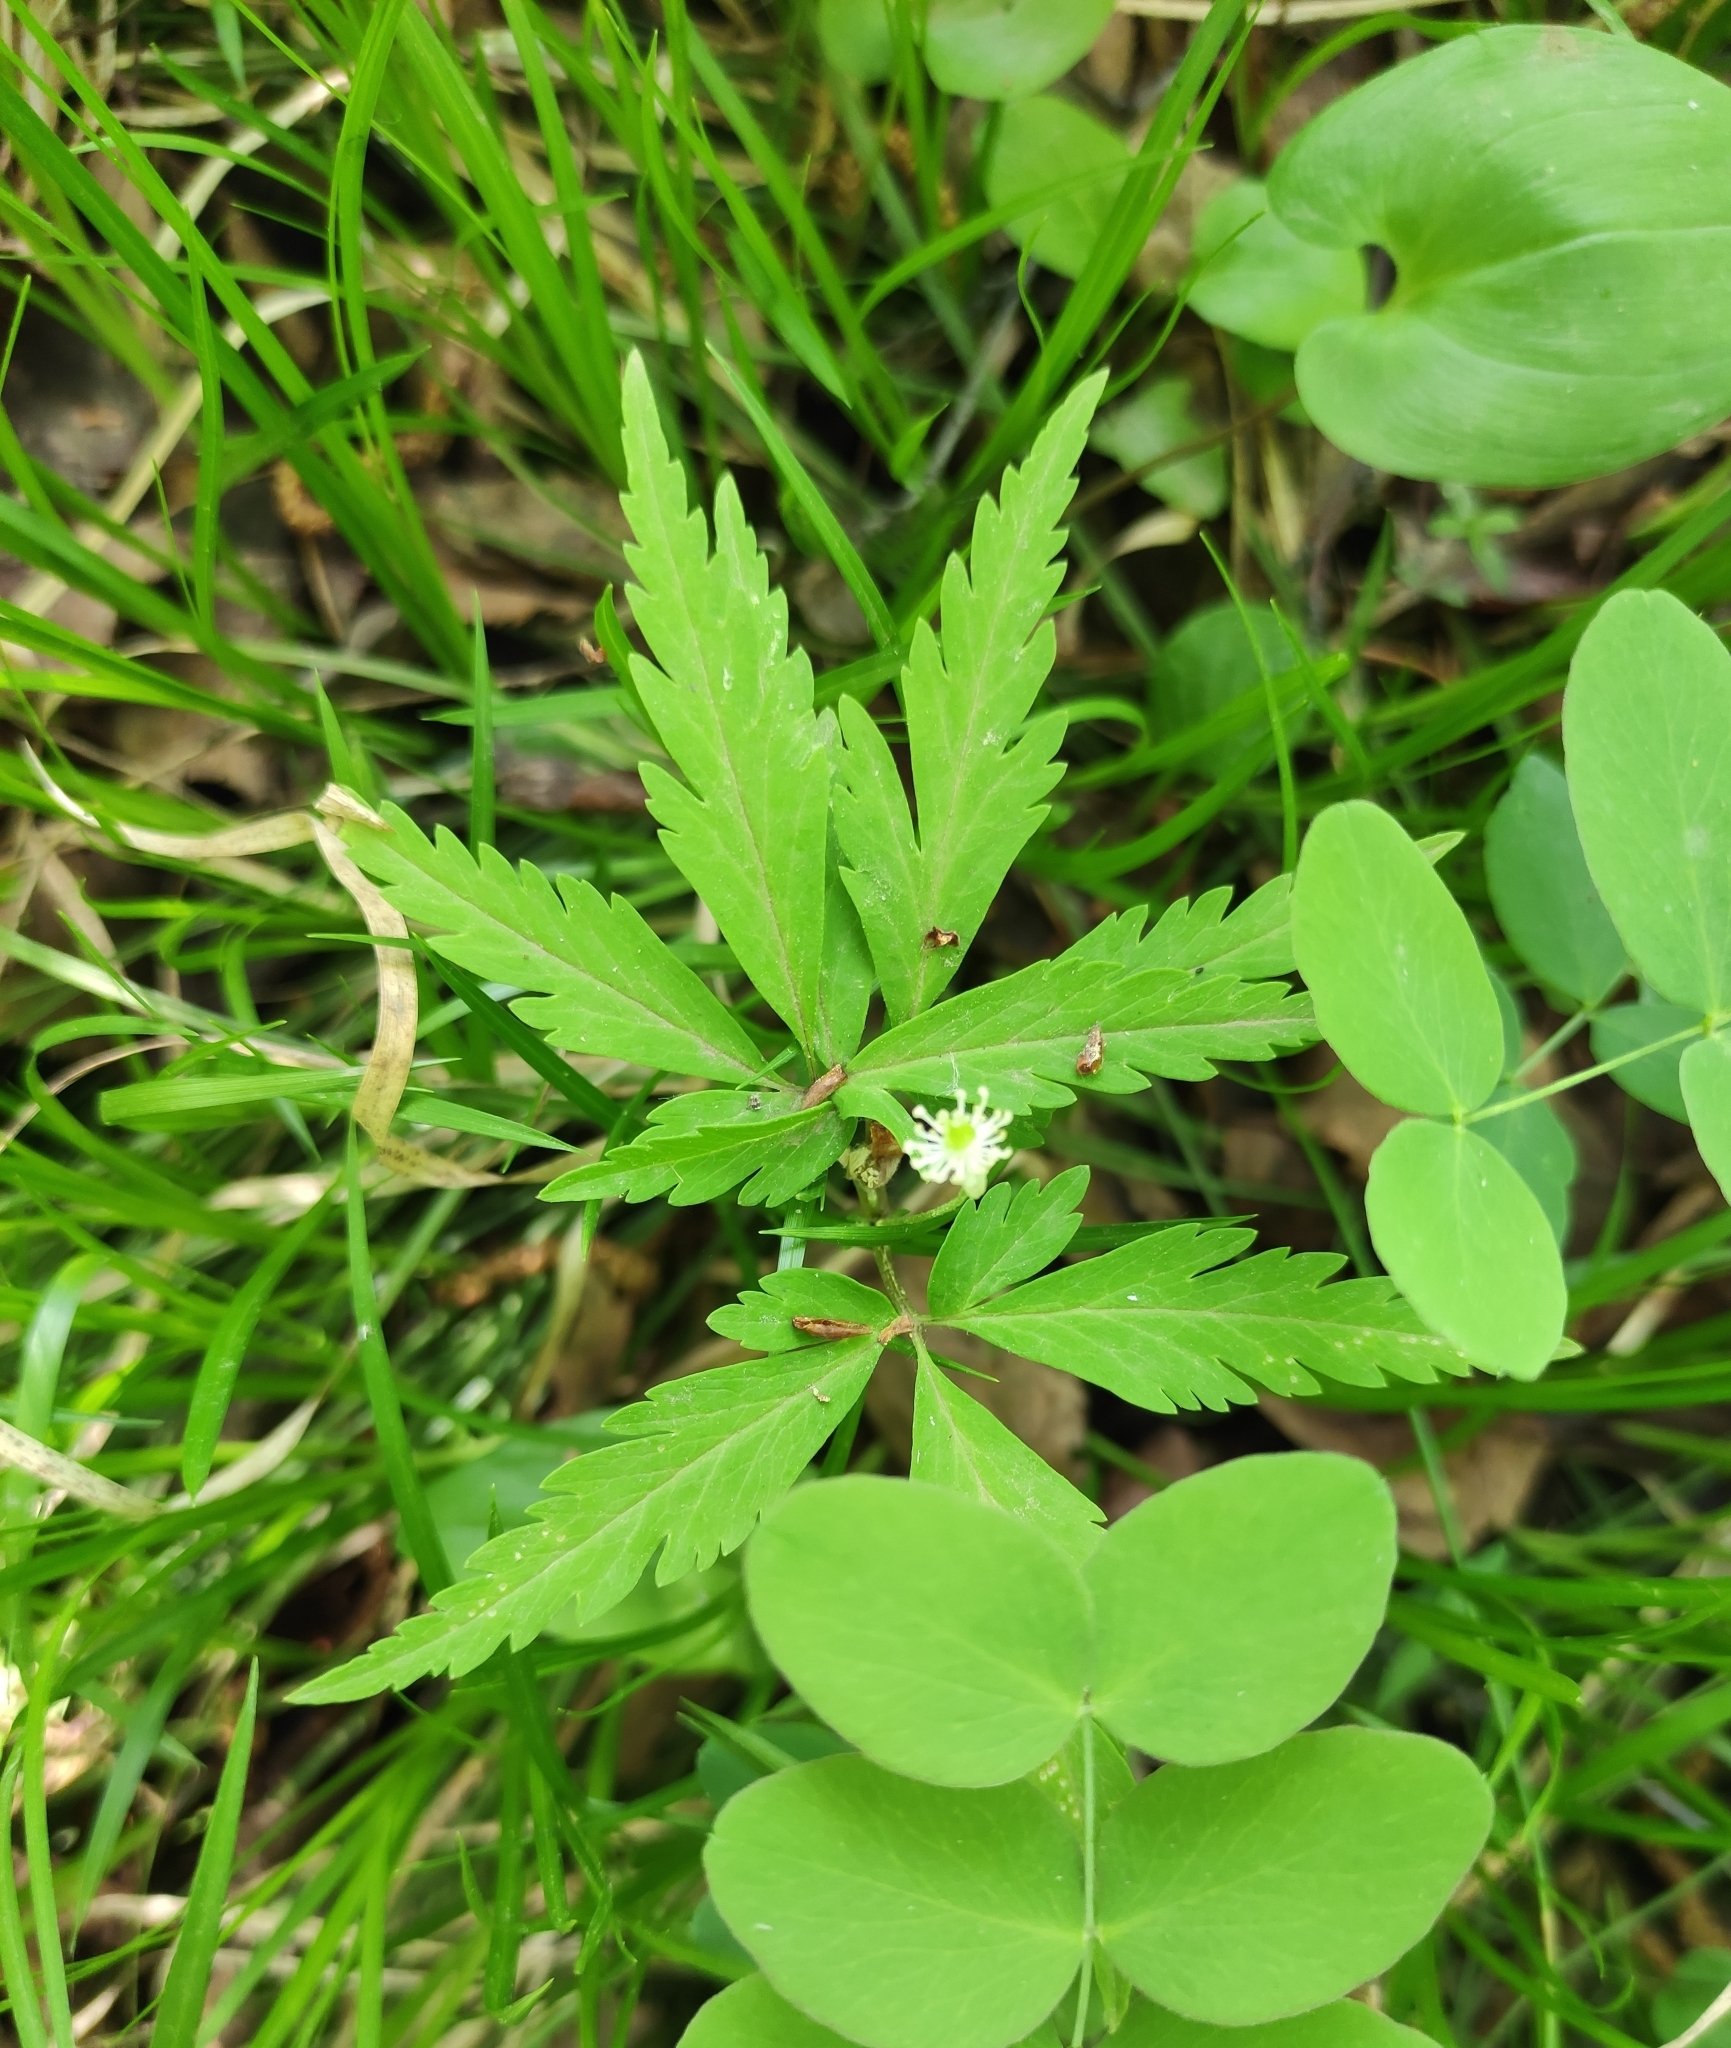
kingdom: Plantae
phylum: Tracheophyta
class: Magnoliopsida
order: Ranunculales
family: Ranunculaceae
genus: Anemone
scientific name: Anemone reflexa
